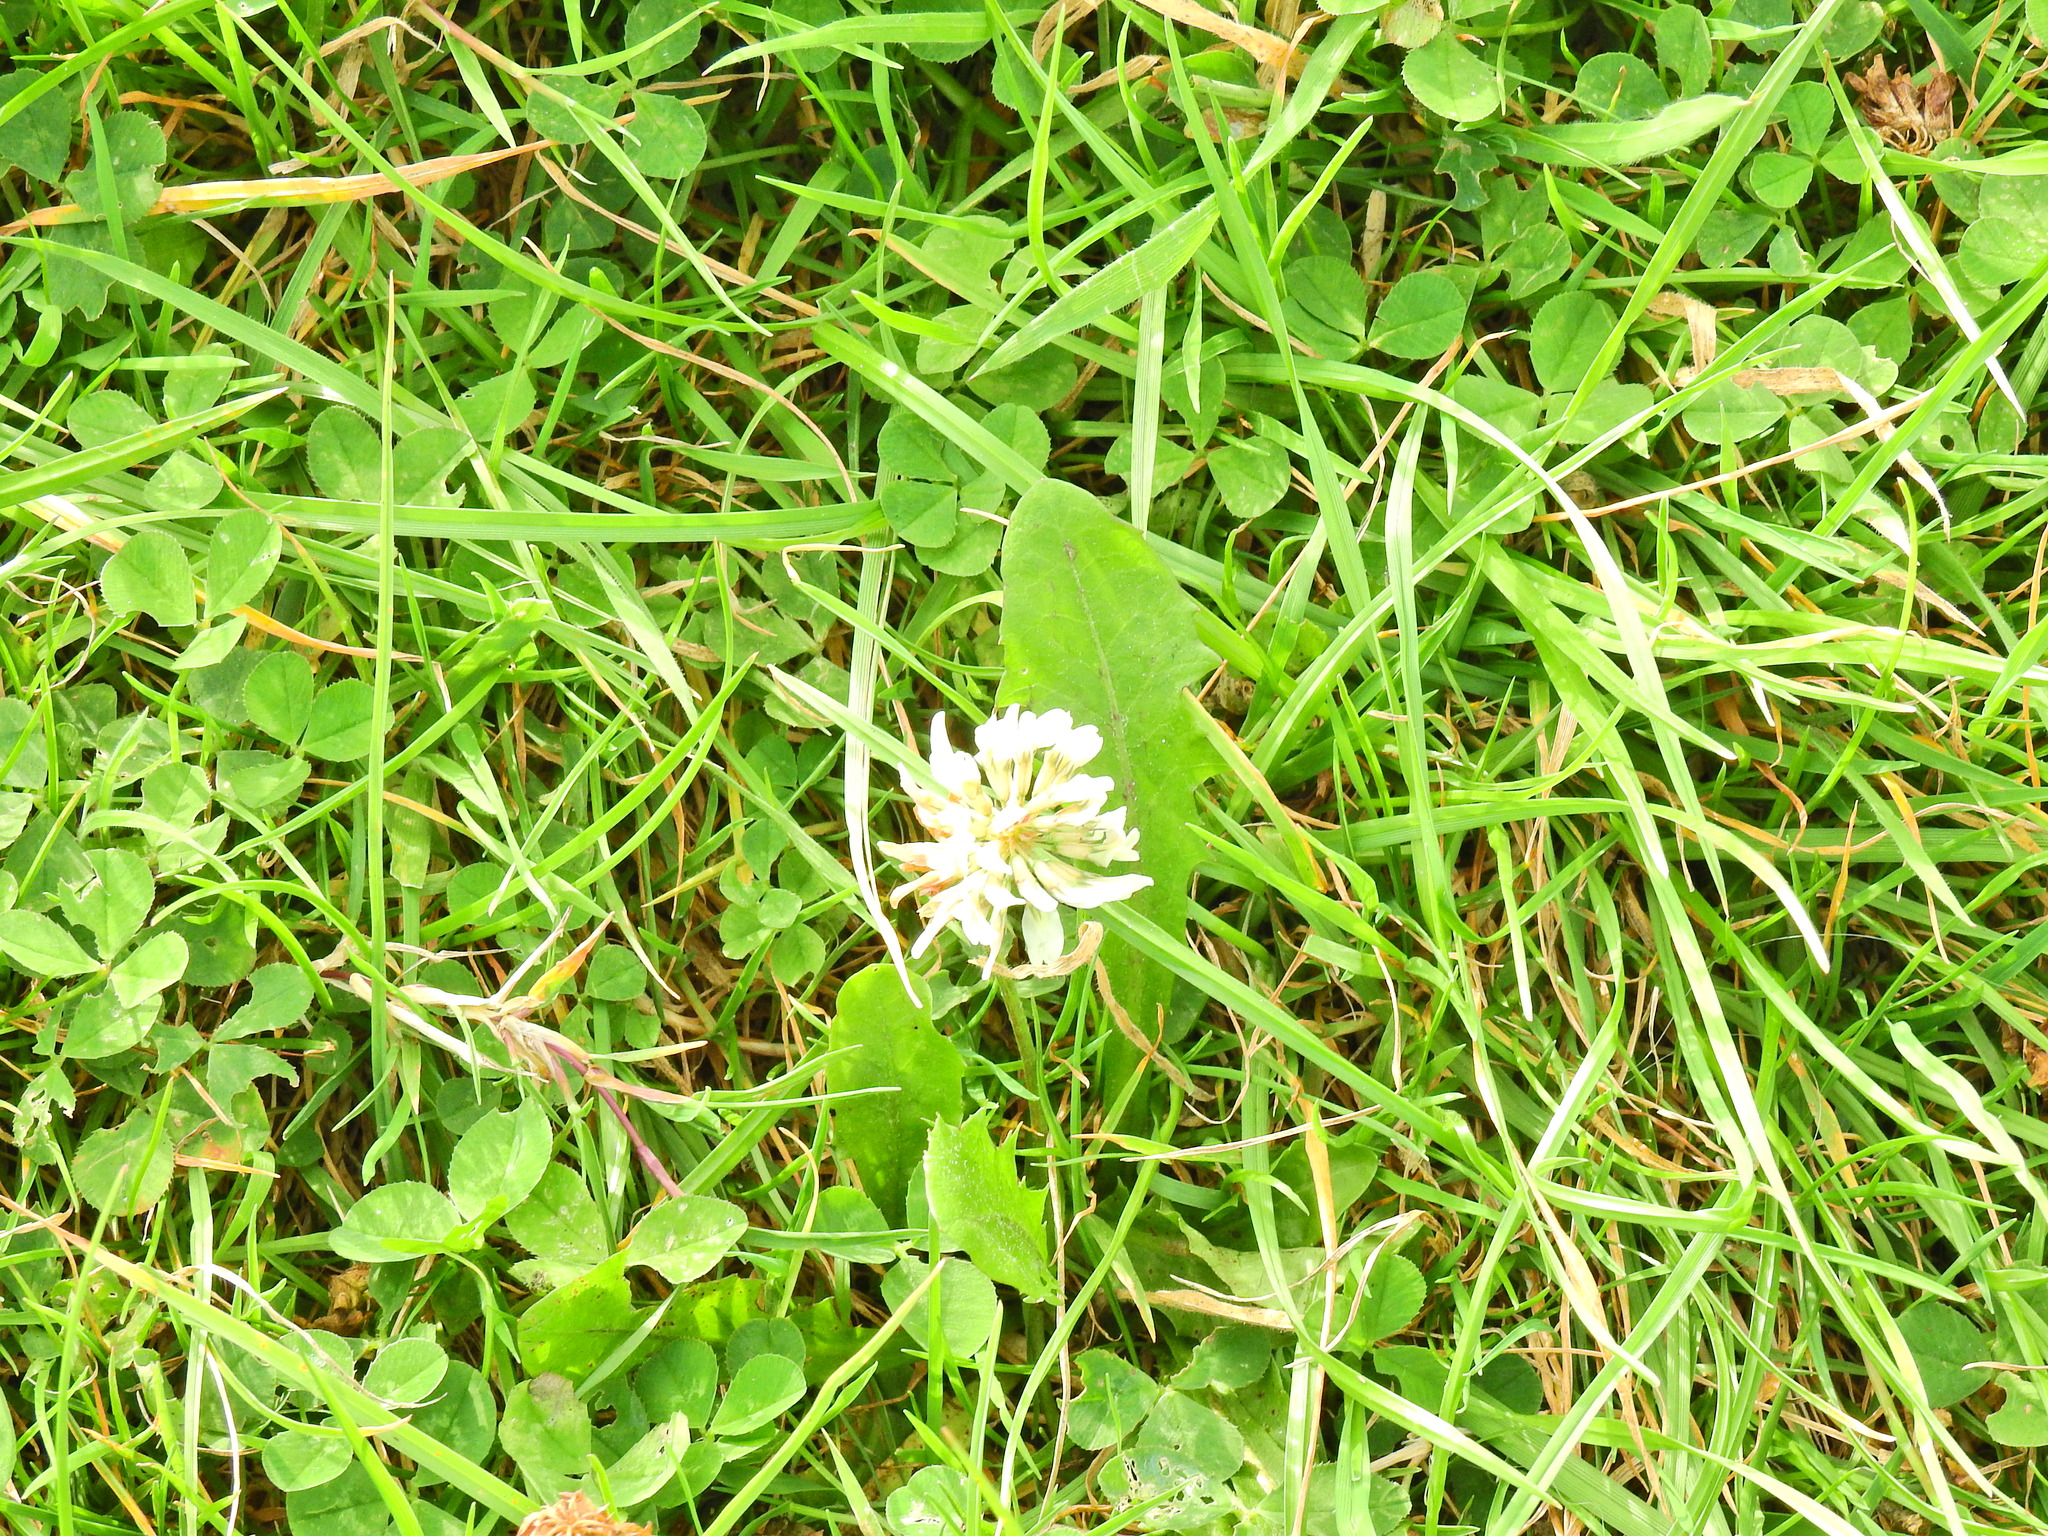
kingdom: Plantae
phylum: Tracheophyta
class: Magnoliopsida
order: Fabales
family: Fabaceae
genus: Trifolium
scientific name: Trifolium repens
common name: White clover
